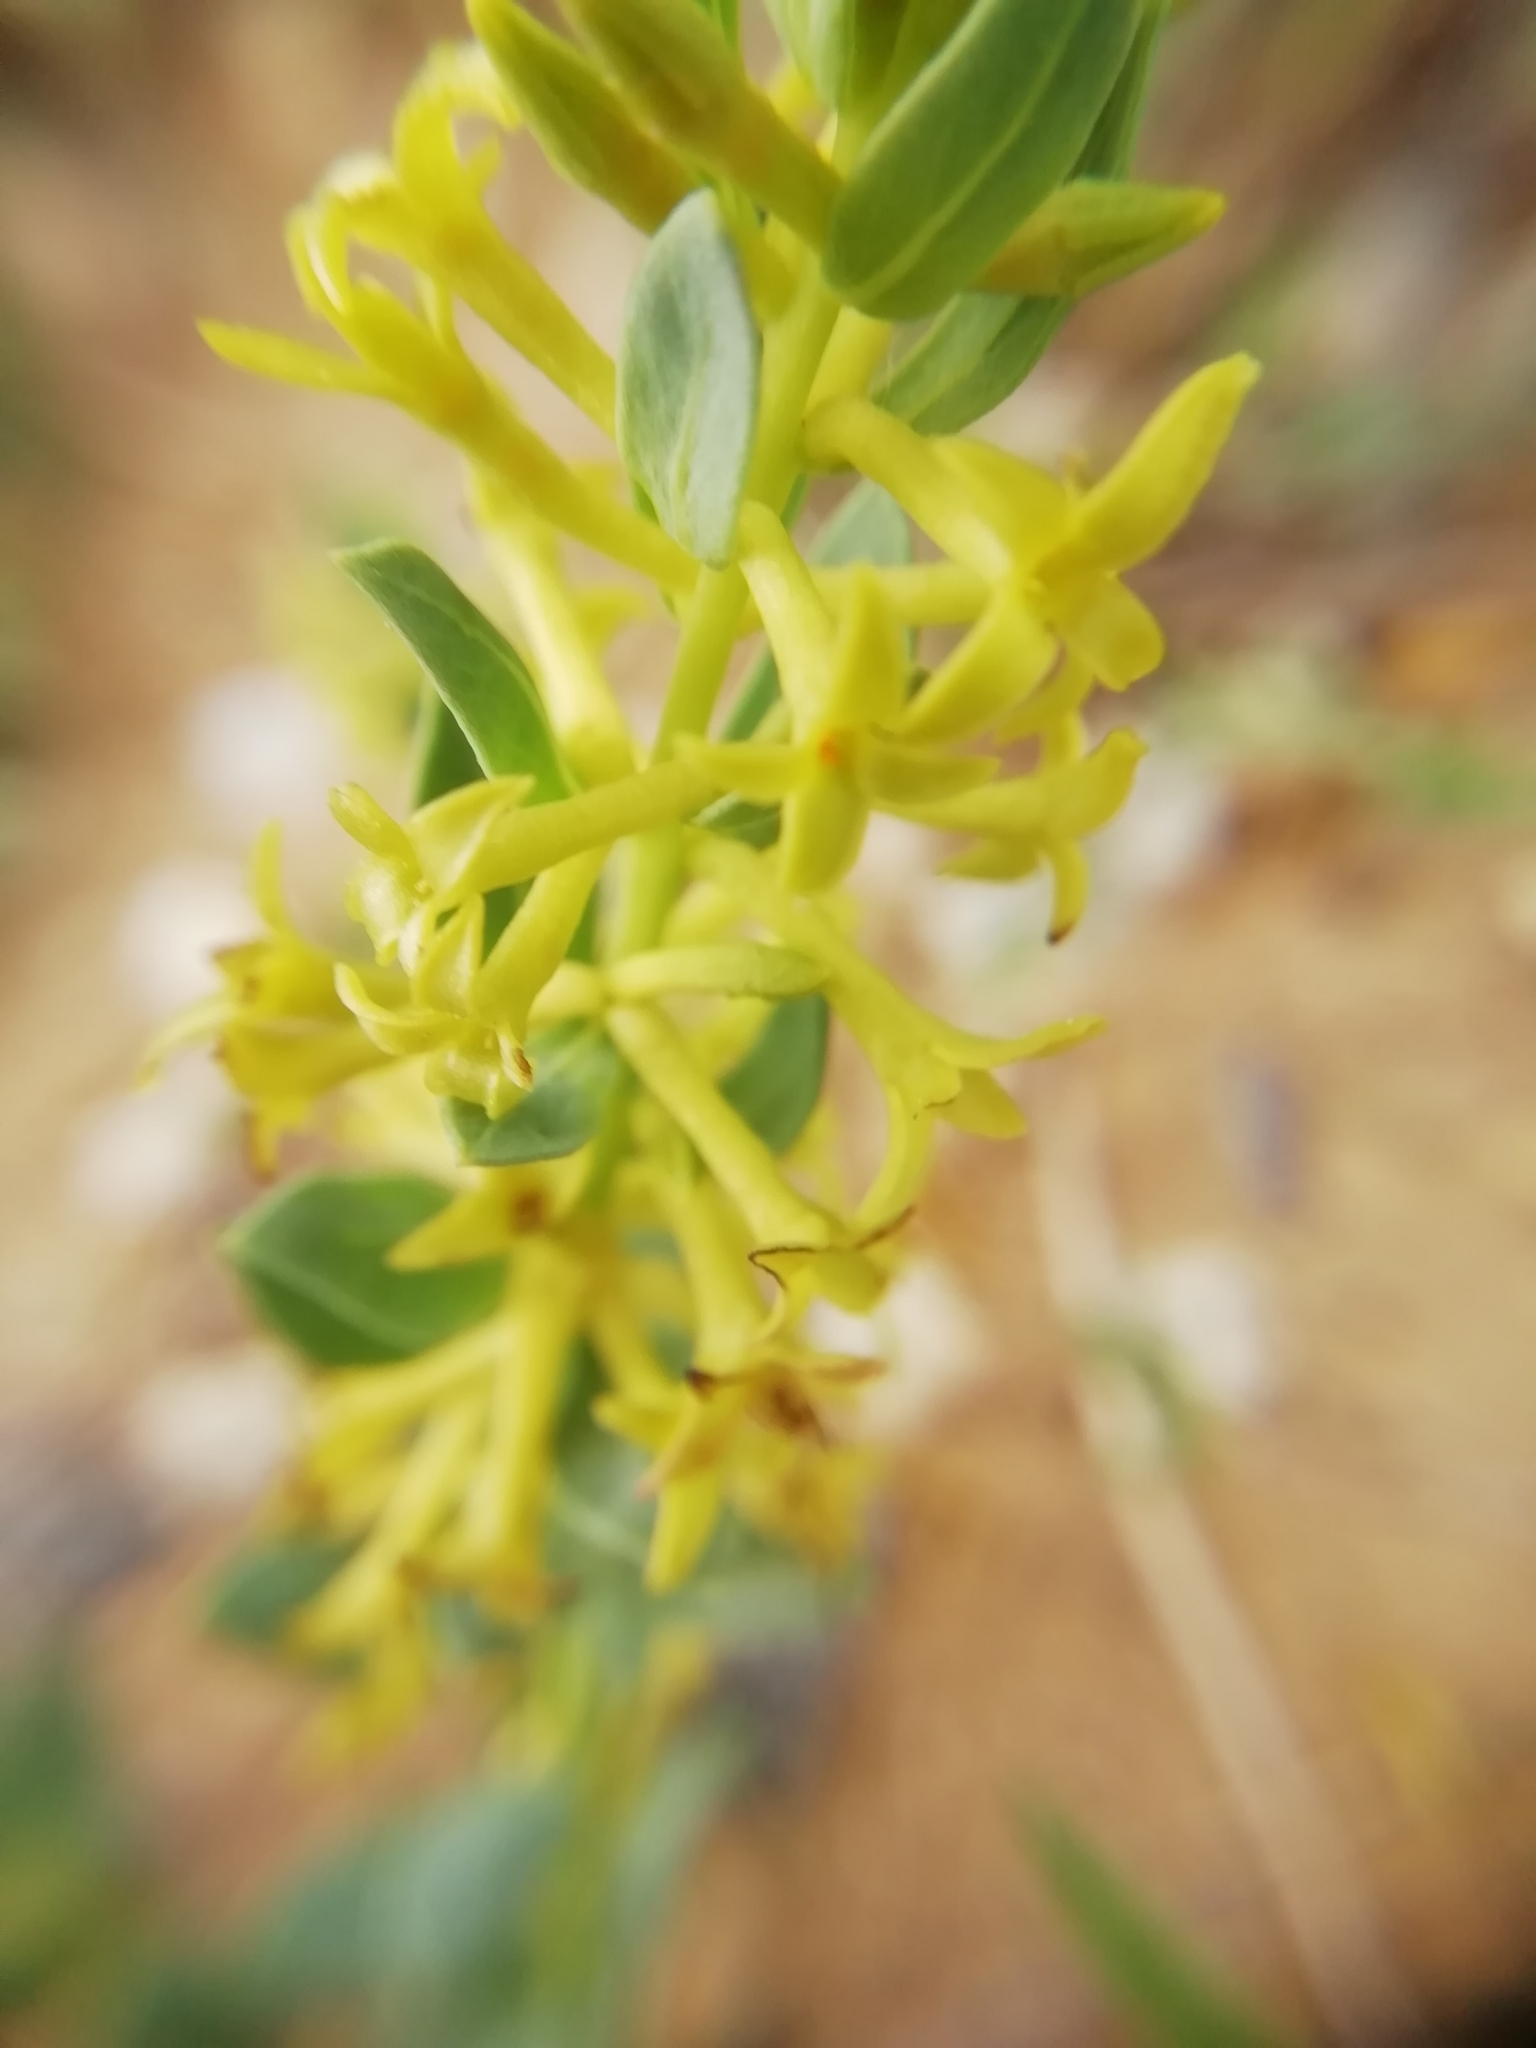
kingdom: Plantae
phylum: Tracheophyta
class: Magnoliopsida
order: Malvales
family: Thymelaeaceae
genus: Thymelaea
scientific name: Thymelaea sanamunda
